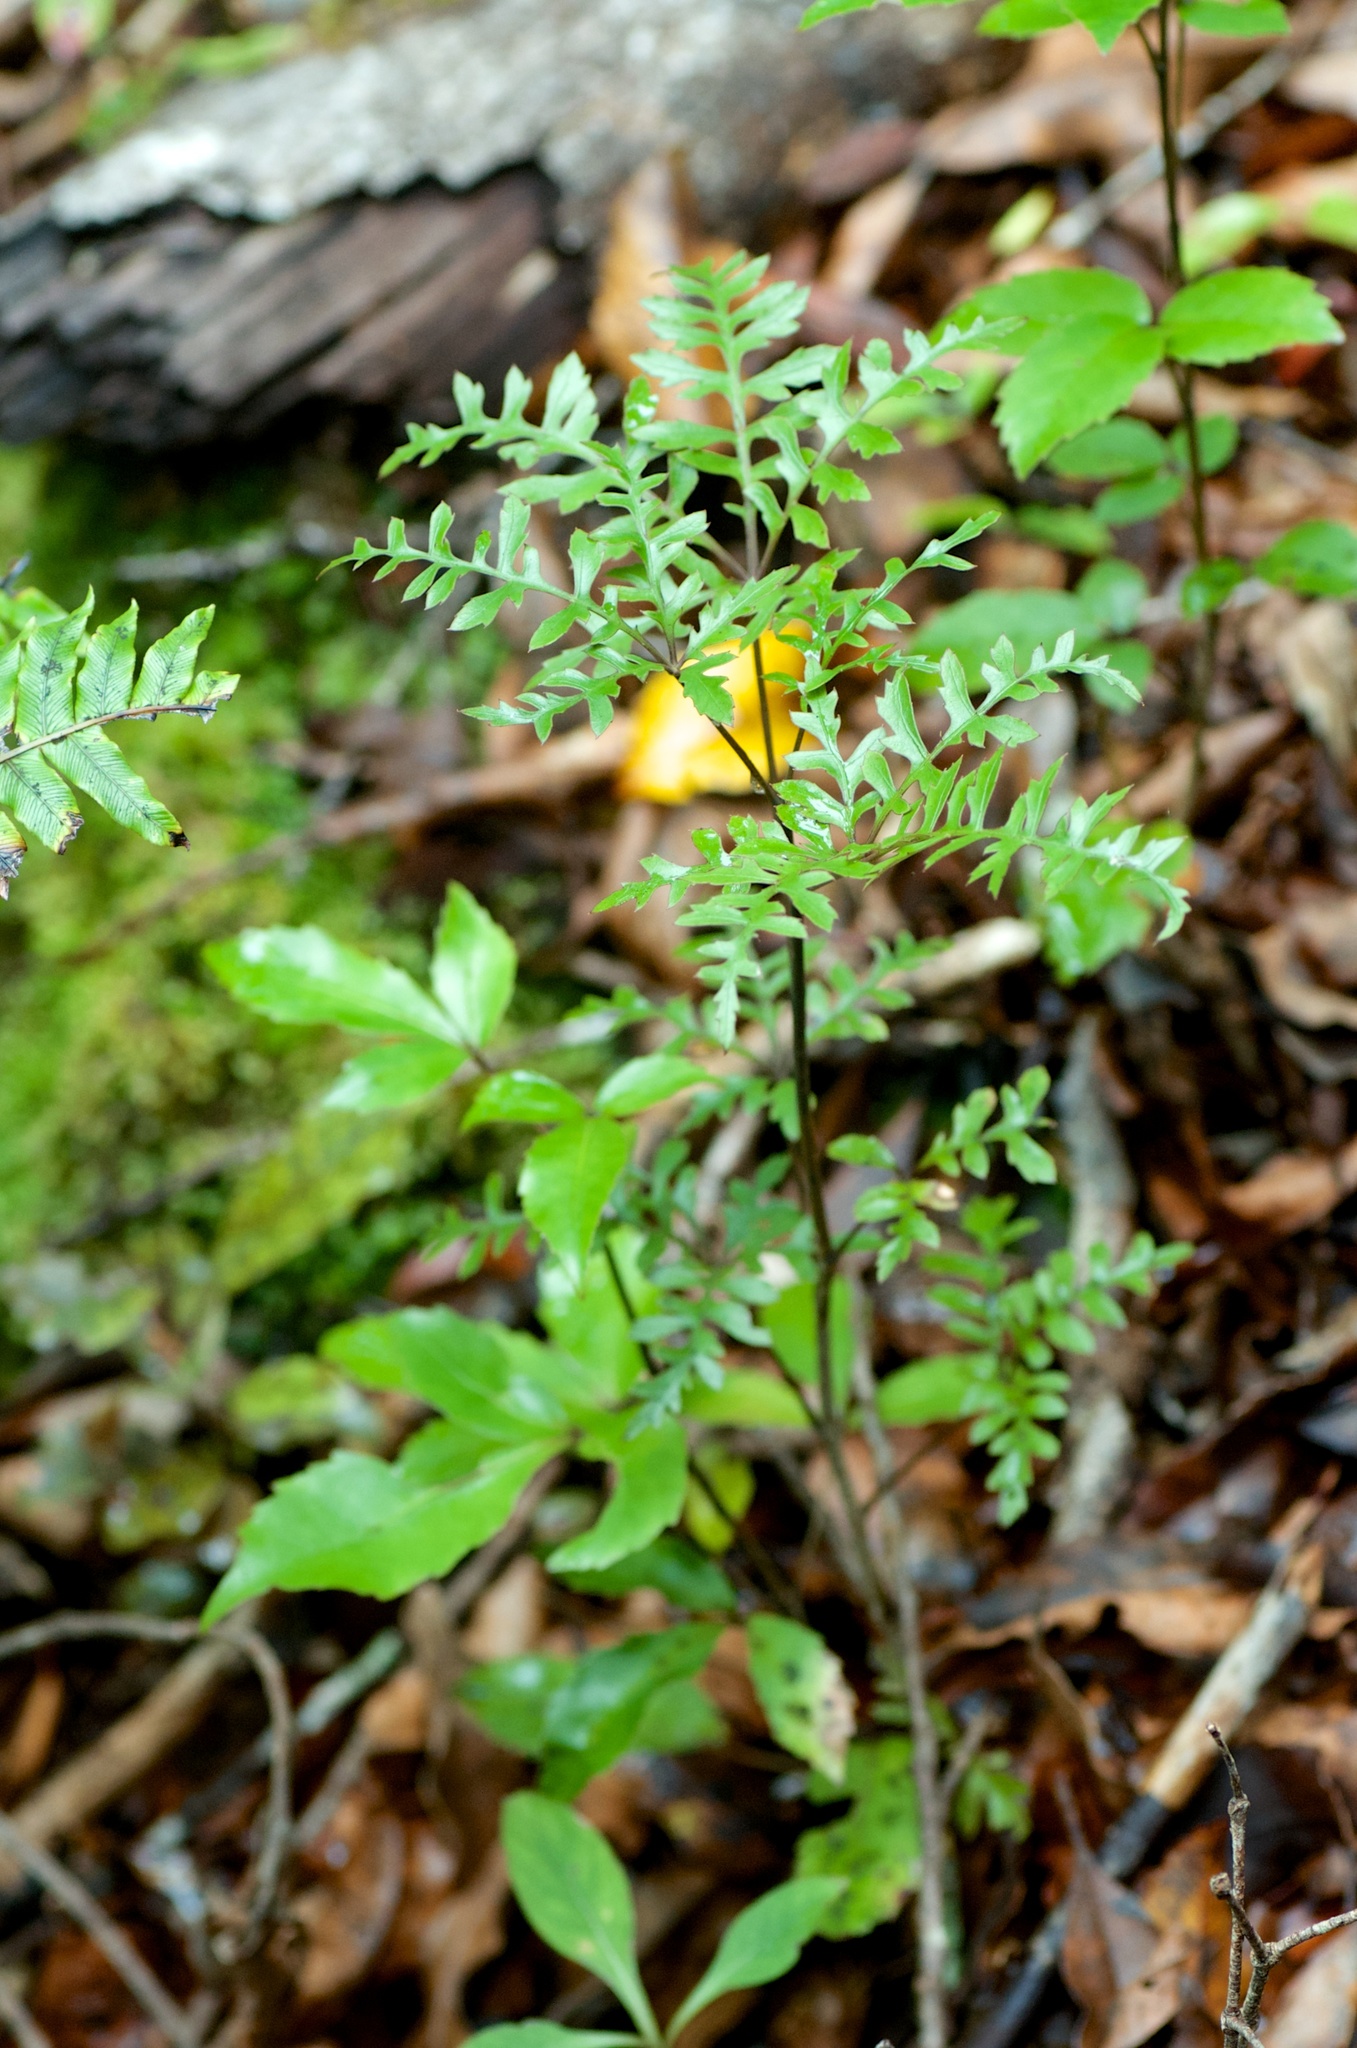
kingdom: Plantae
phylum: Tracheophyta
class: Magnoliopsida
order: Apiales
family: Araliaceae
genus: Raukaua
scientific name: Raukaua simplex
